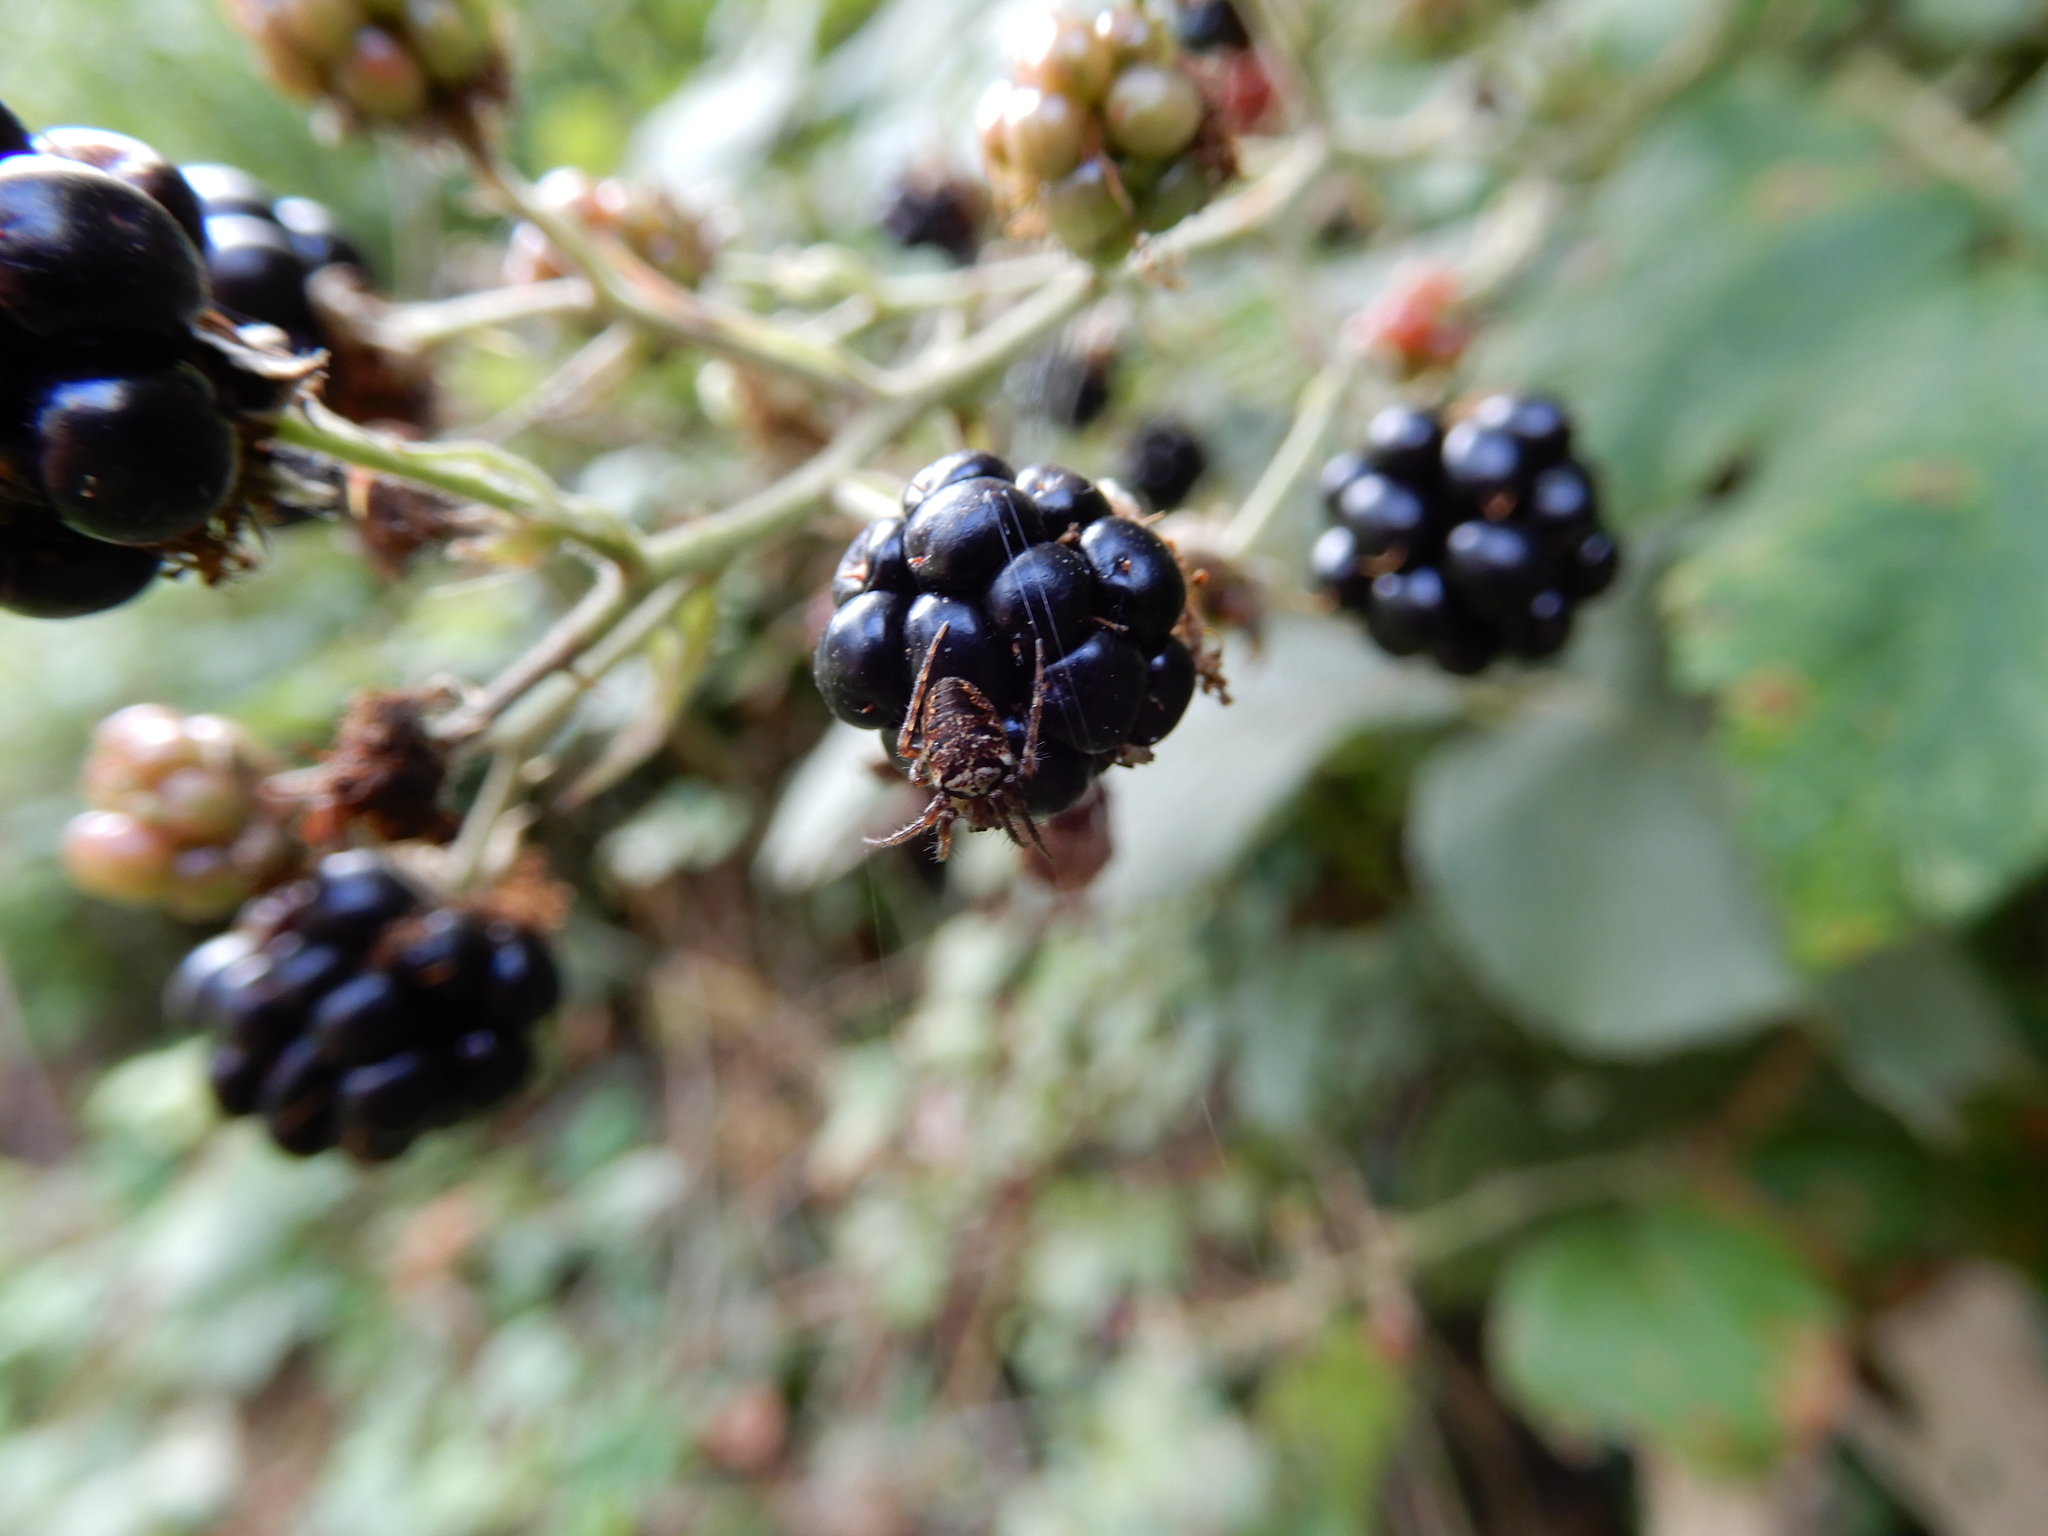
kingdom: Animalia
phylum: Arthropoda
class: Arachnida
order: Araneae
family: Araneidae
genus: Zilla
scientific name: Zilla diodia
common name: Zilla diodia
